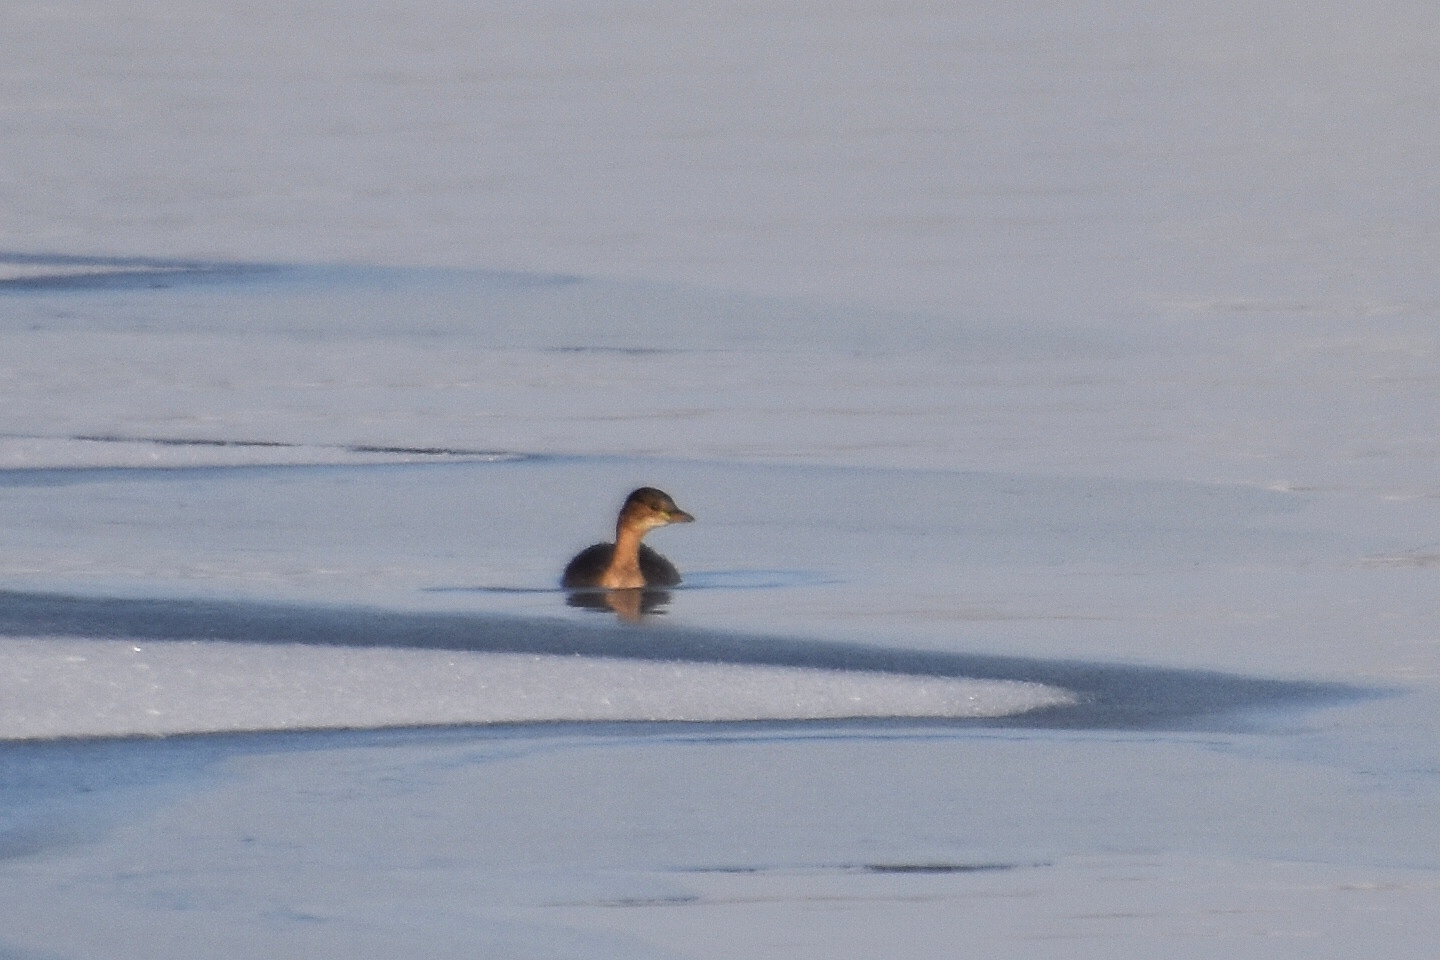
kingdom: Animalia
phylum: Chordata
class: Aves
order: Podicipediformes
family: Podicipedidae
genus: Tachybaptus
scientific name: Tachybaptus ruficollis
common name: Little grebe
